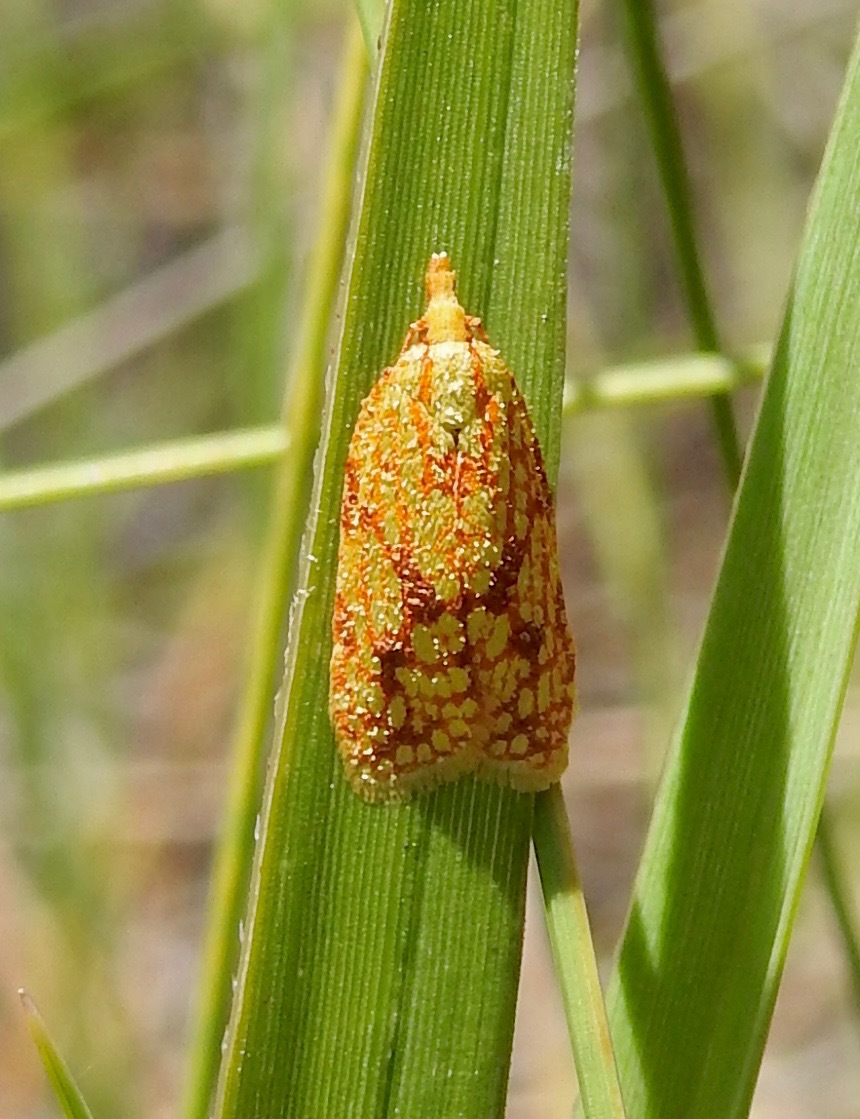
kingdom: Animalia
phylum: Arthropoda
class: Insecta
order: Lepidoptera
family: Tortricidae
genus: Sparganothis
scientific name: Sparganothis sulfureana
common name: Sparganothis fruitworm moth
